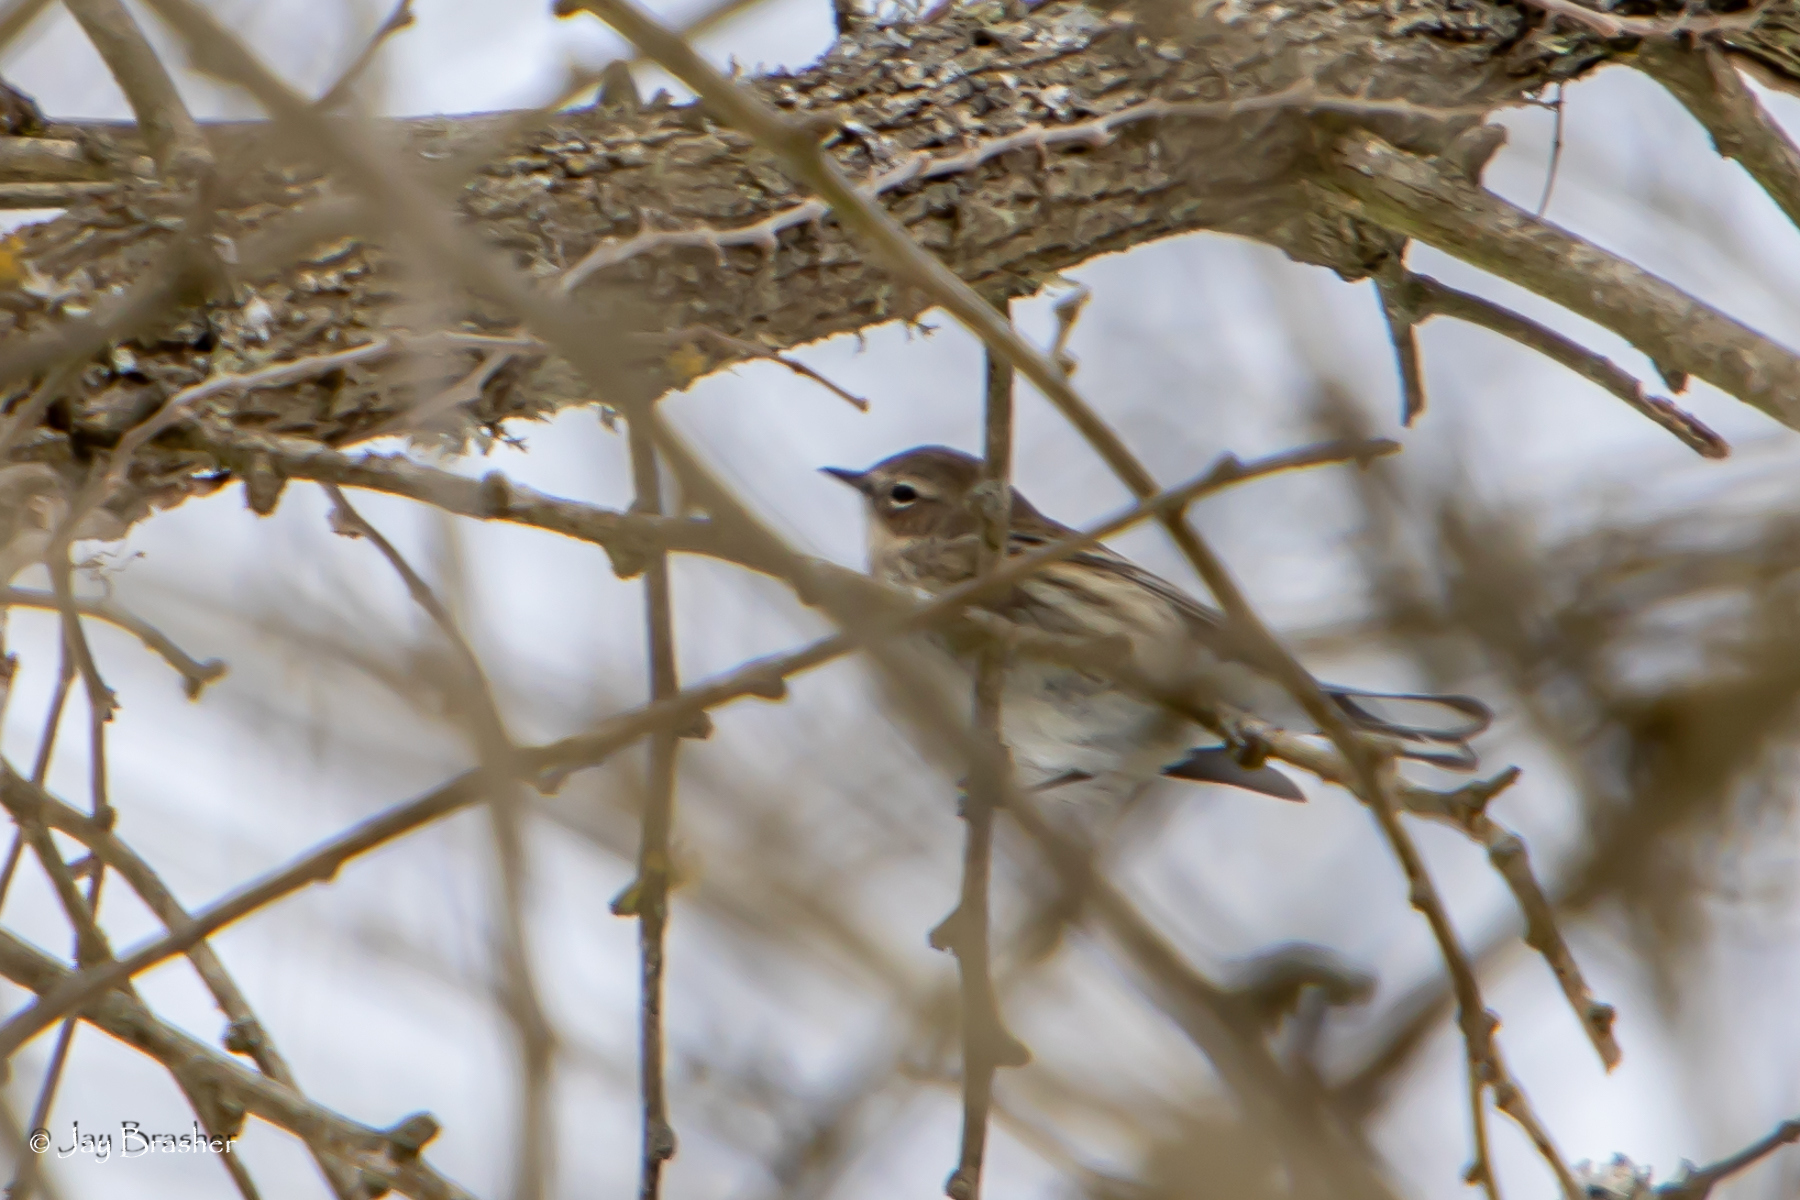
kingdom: Animalia
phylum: Chordata
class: Aves
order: Passeriformes
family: Parulidae
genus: Setophaga
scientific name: Setophaga coronata
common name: Myrtle warbler
